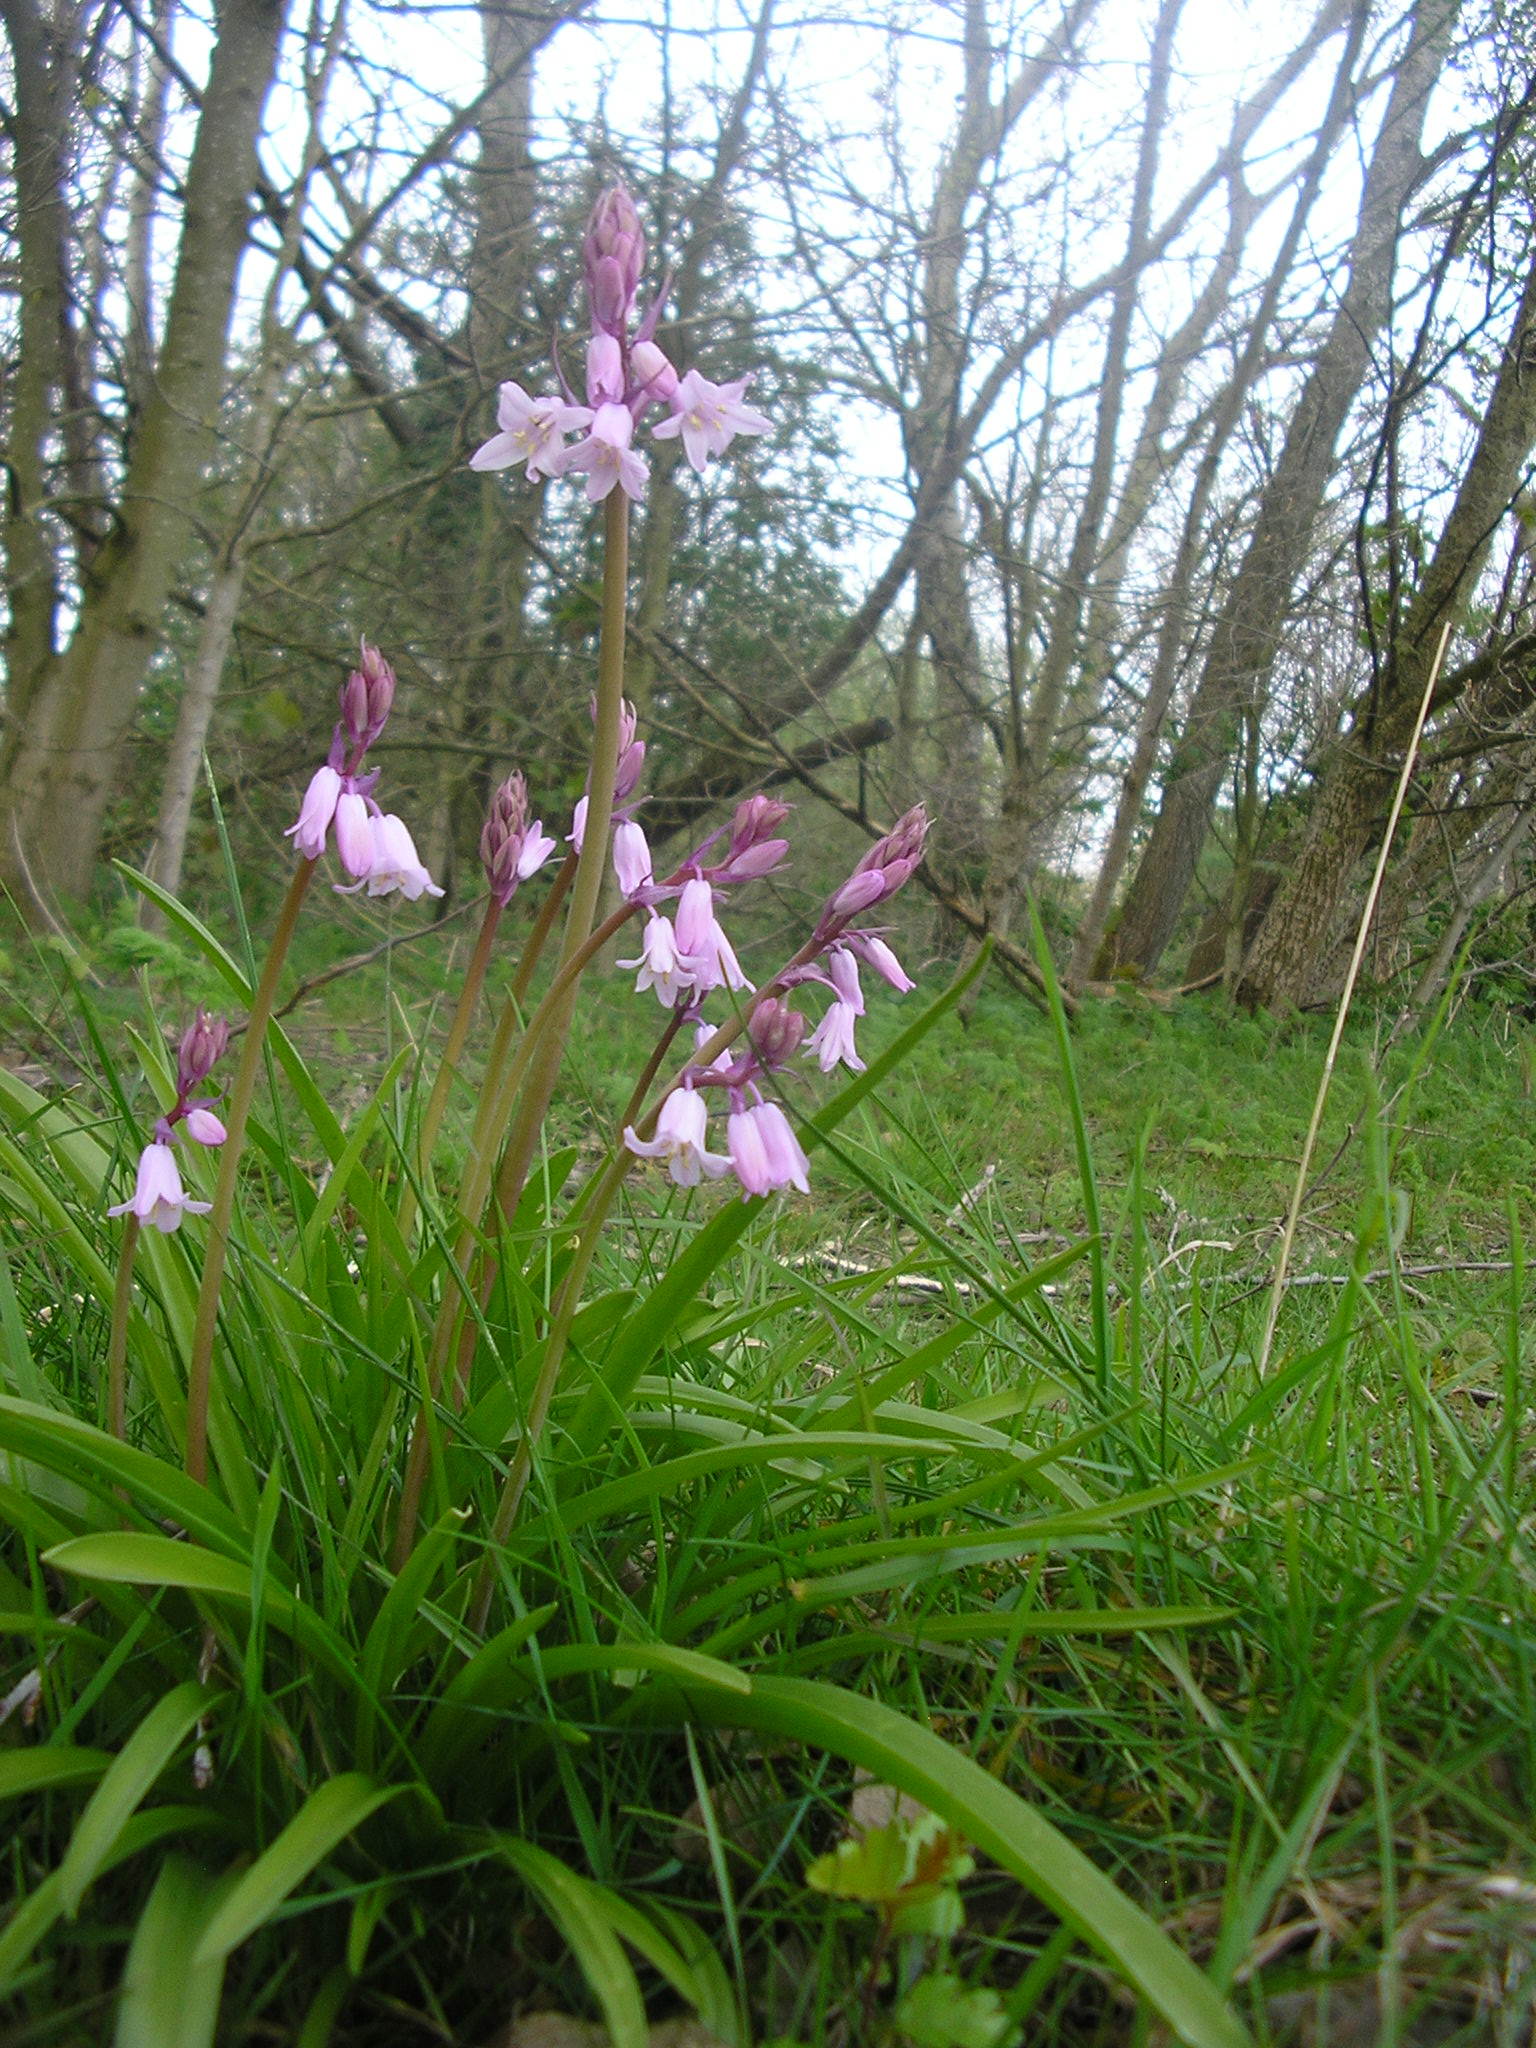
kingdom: Plantae
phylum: Tracheophyta
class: Liliopsida
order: Asparagales
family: Asparagaceae
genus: Hyacinthoides
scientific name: Hyacinthoides massartiana
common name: Hyacinthoides
